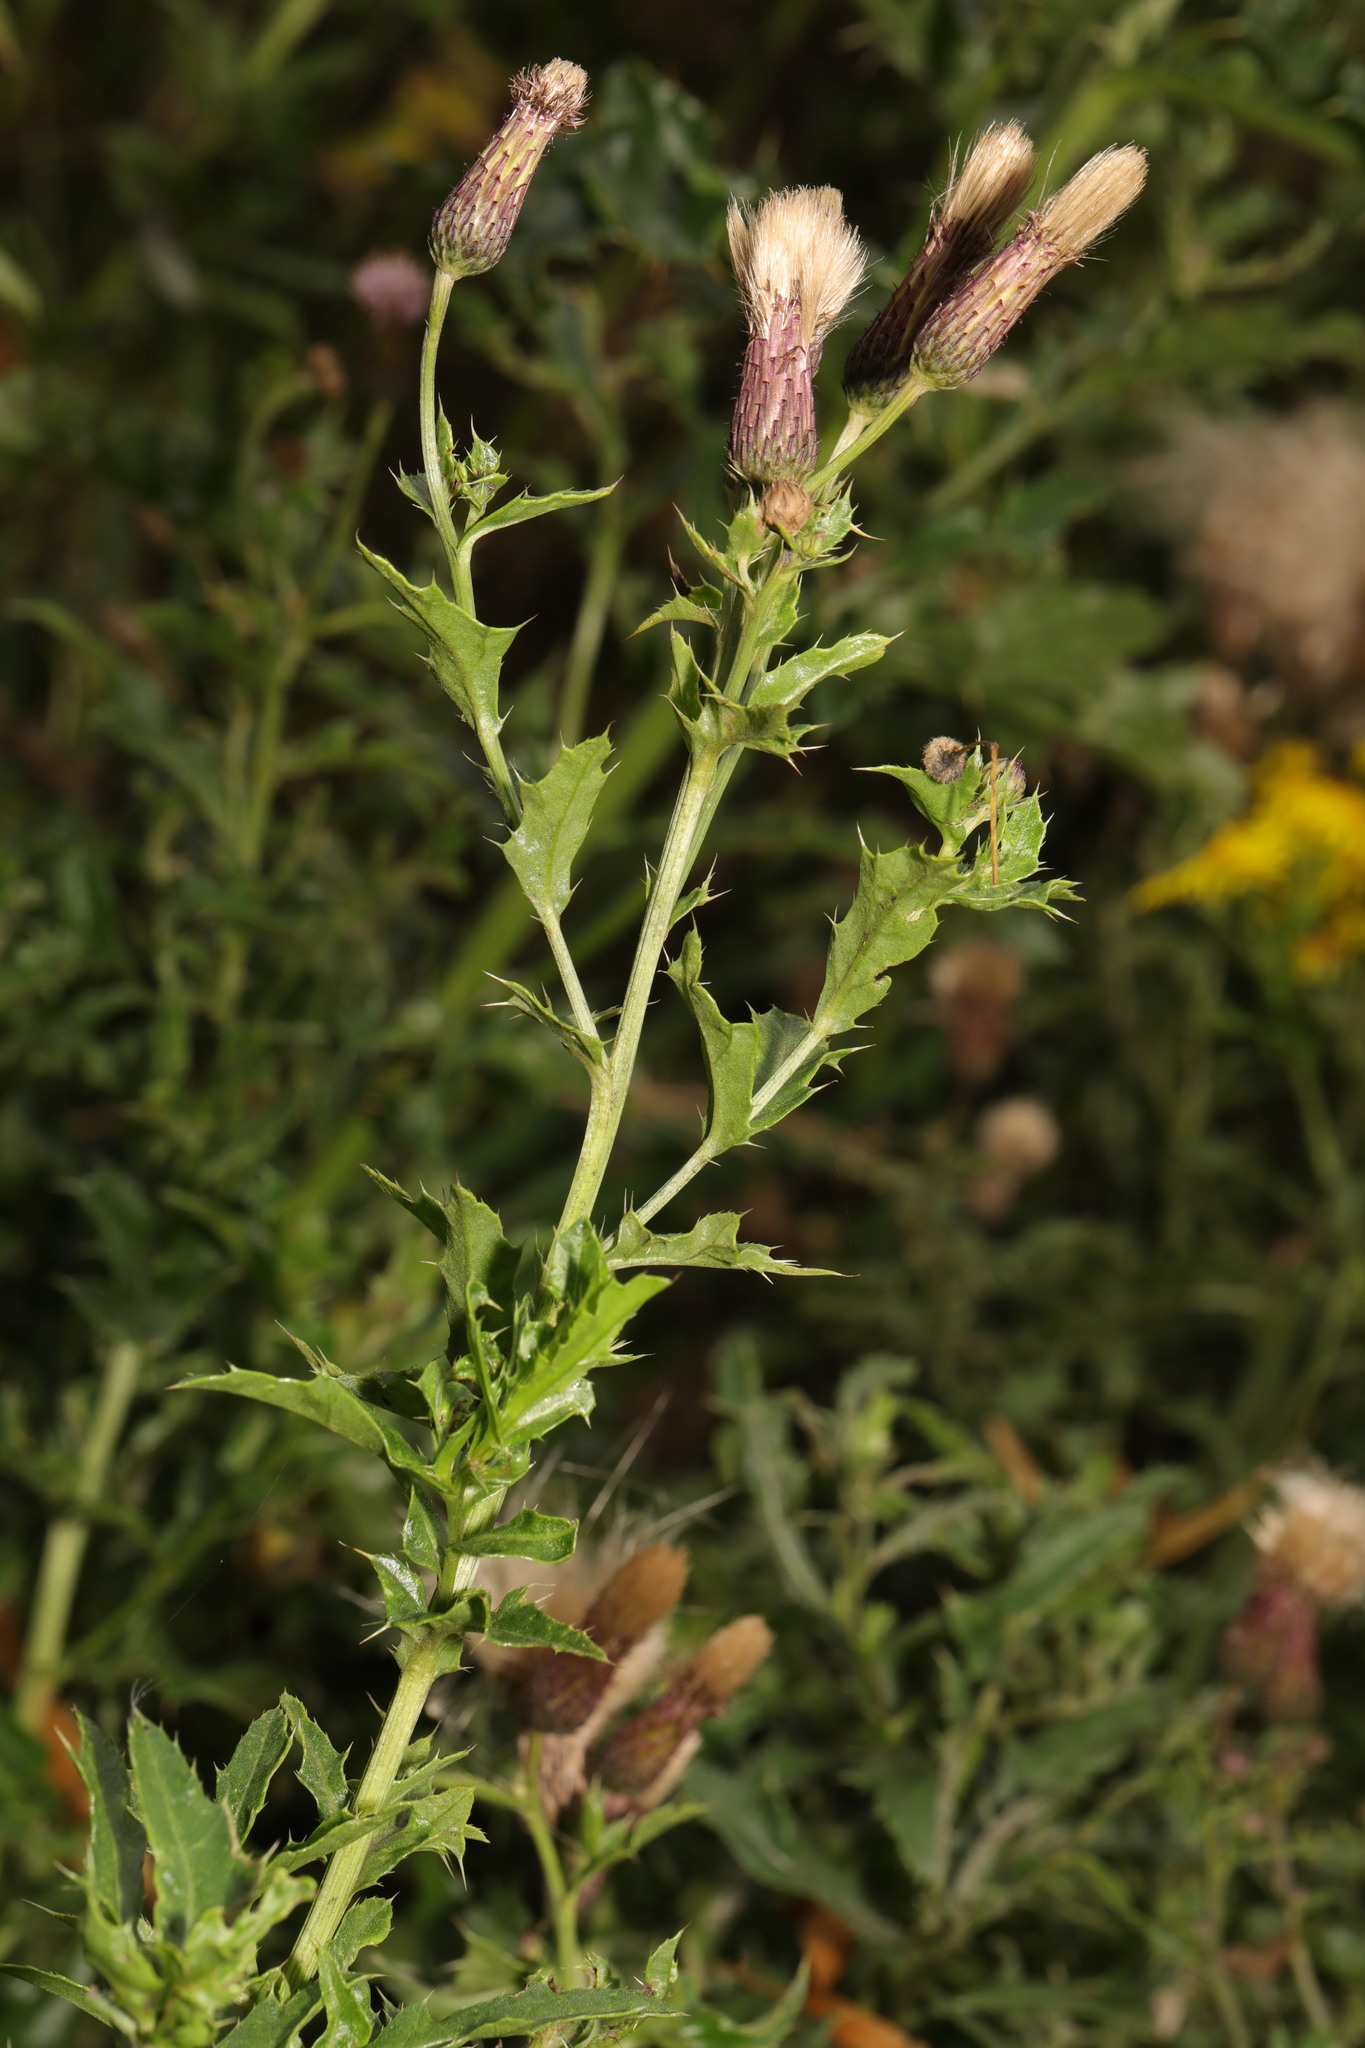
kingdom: Plantae
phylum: Tracheophyta
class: Magnoliopsida
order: Asterales
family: Asteraceae
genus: Cirsium
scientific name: Cirsium arvense
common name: Creeping thistle
